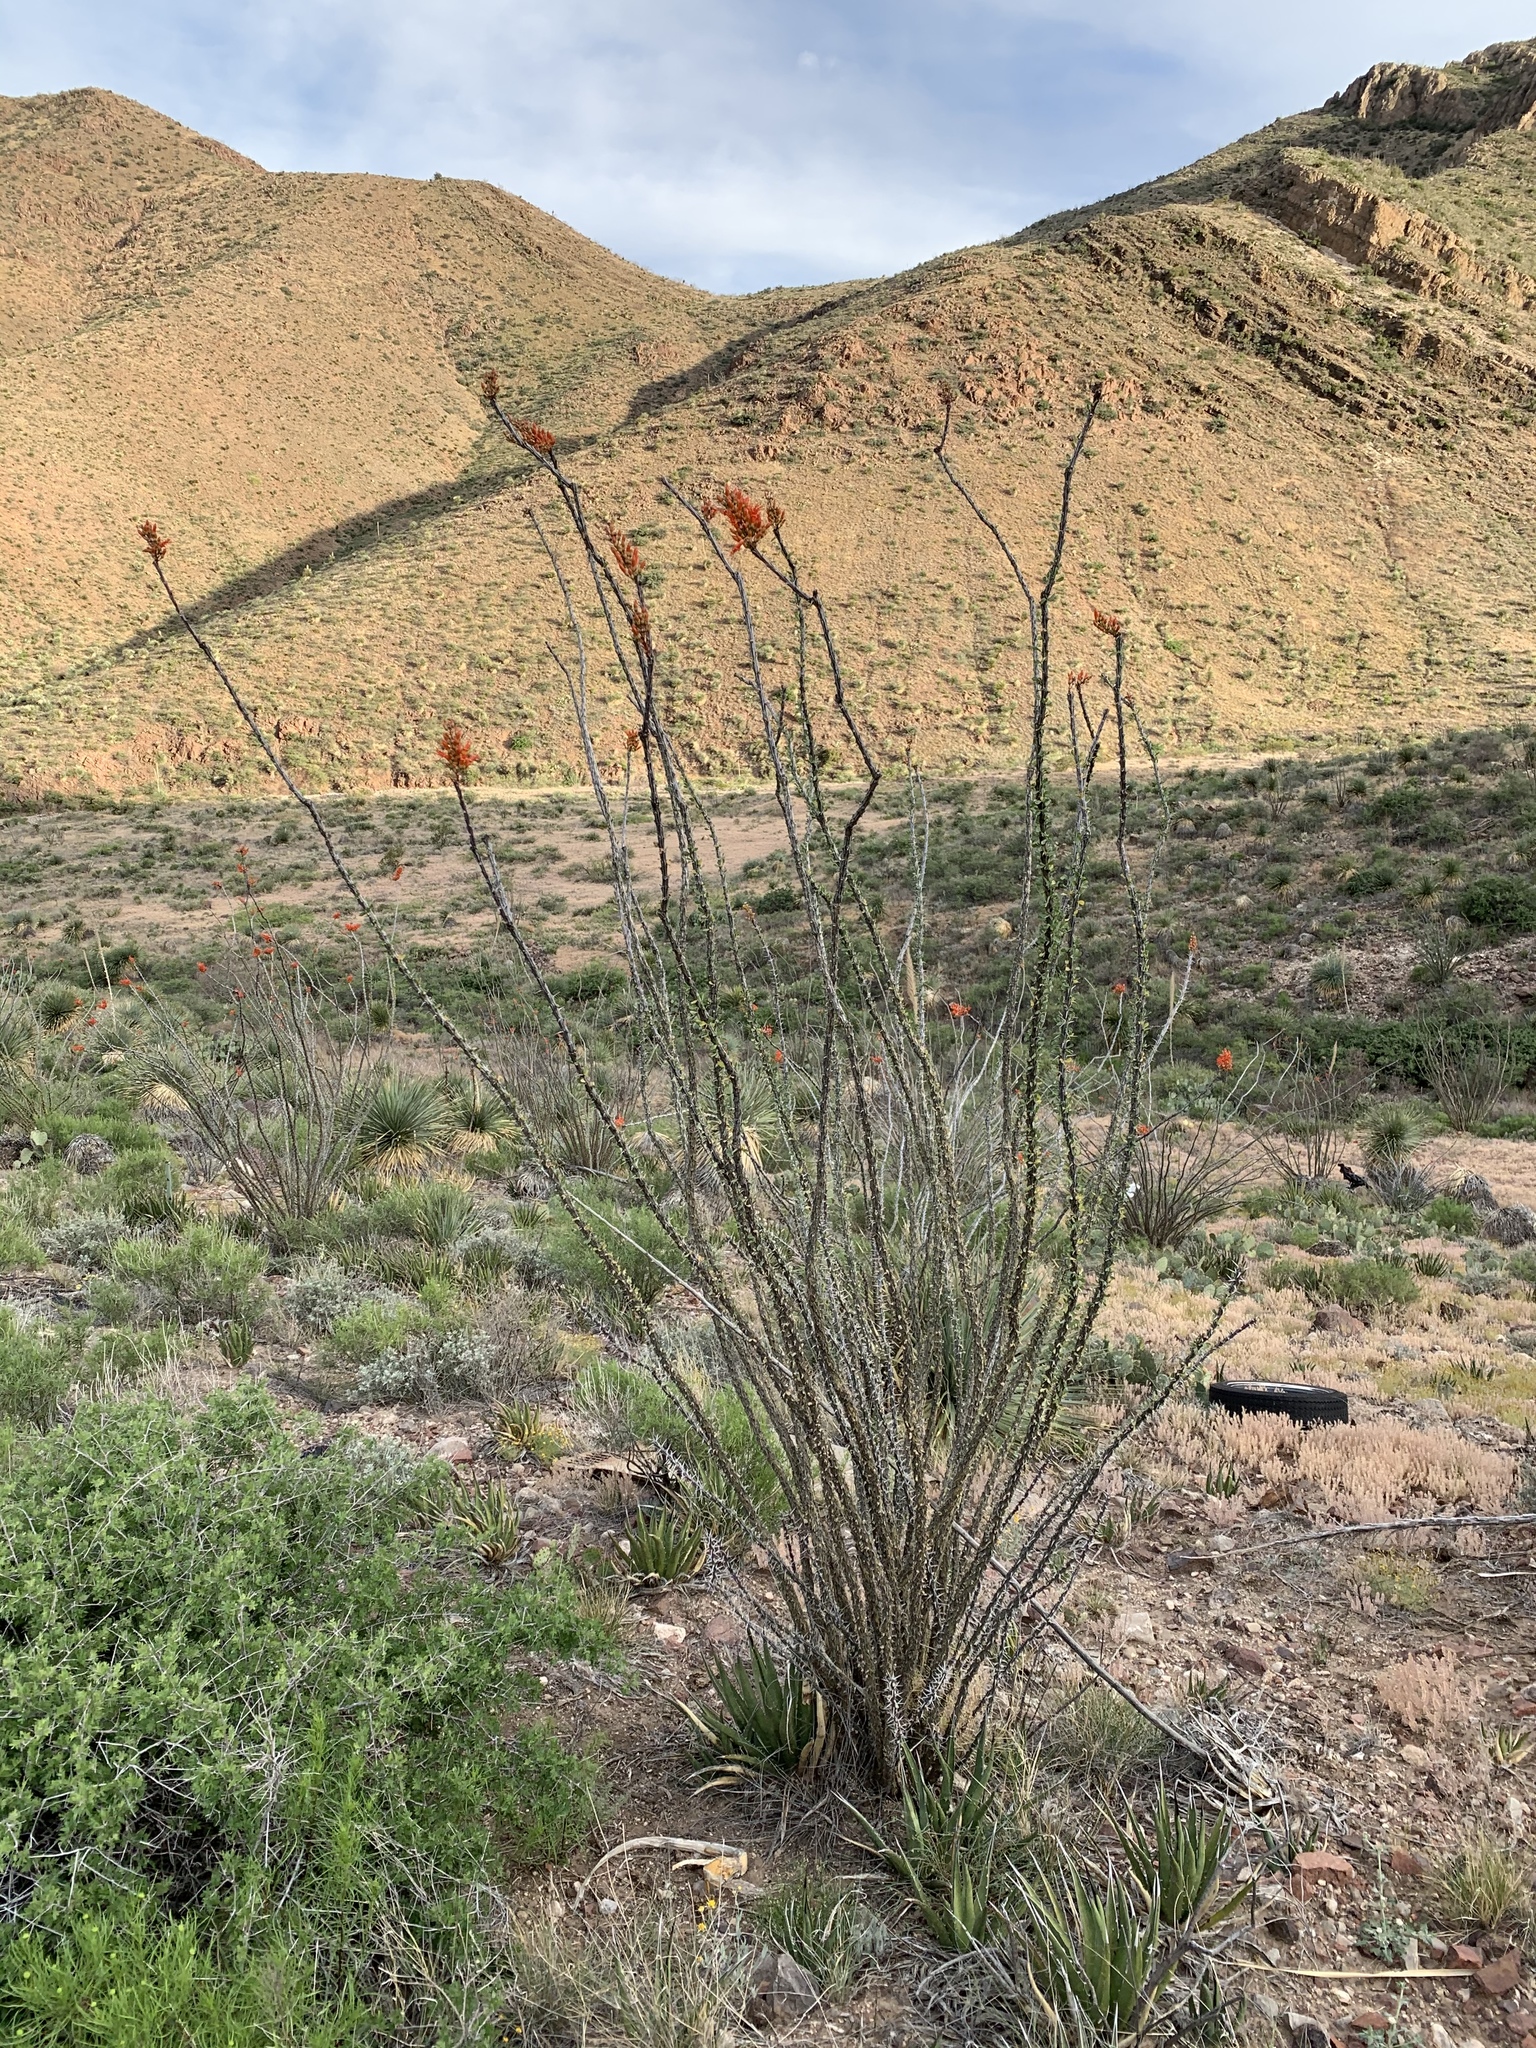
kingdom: Plantae
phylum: Tracheophyta
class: Magnoliopsida
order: Ericales
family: Fouquieriaceae
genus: Fouquieria
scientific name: Fouquieria splendens
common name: Vine-cactus
